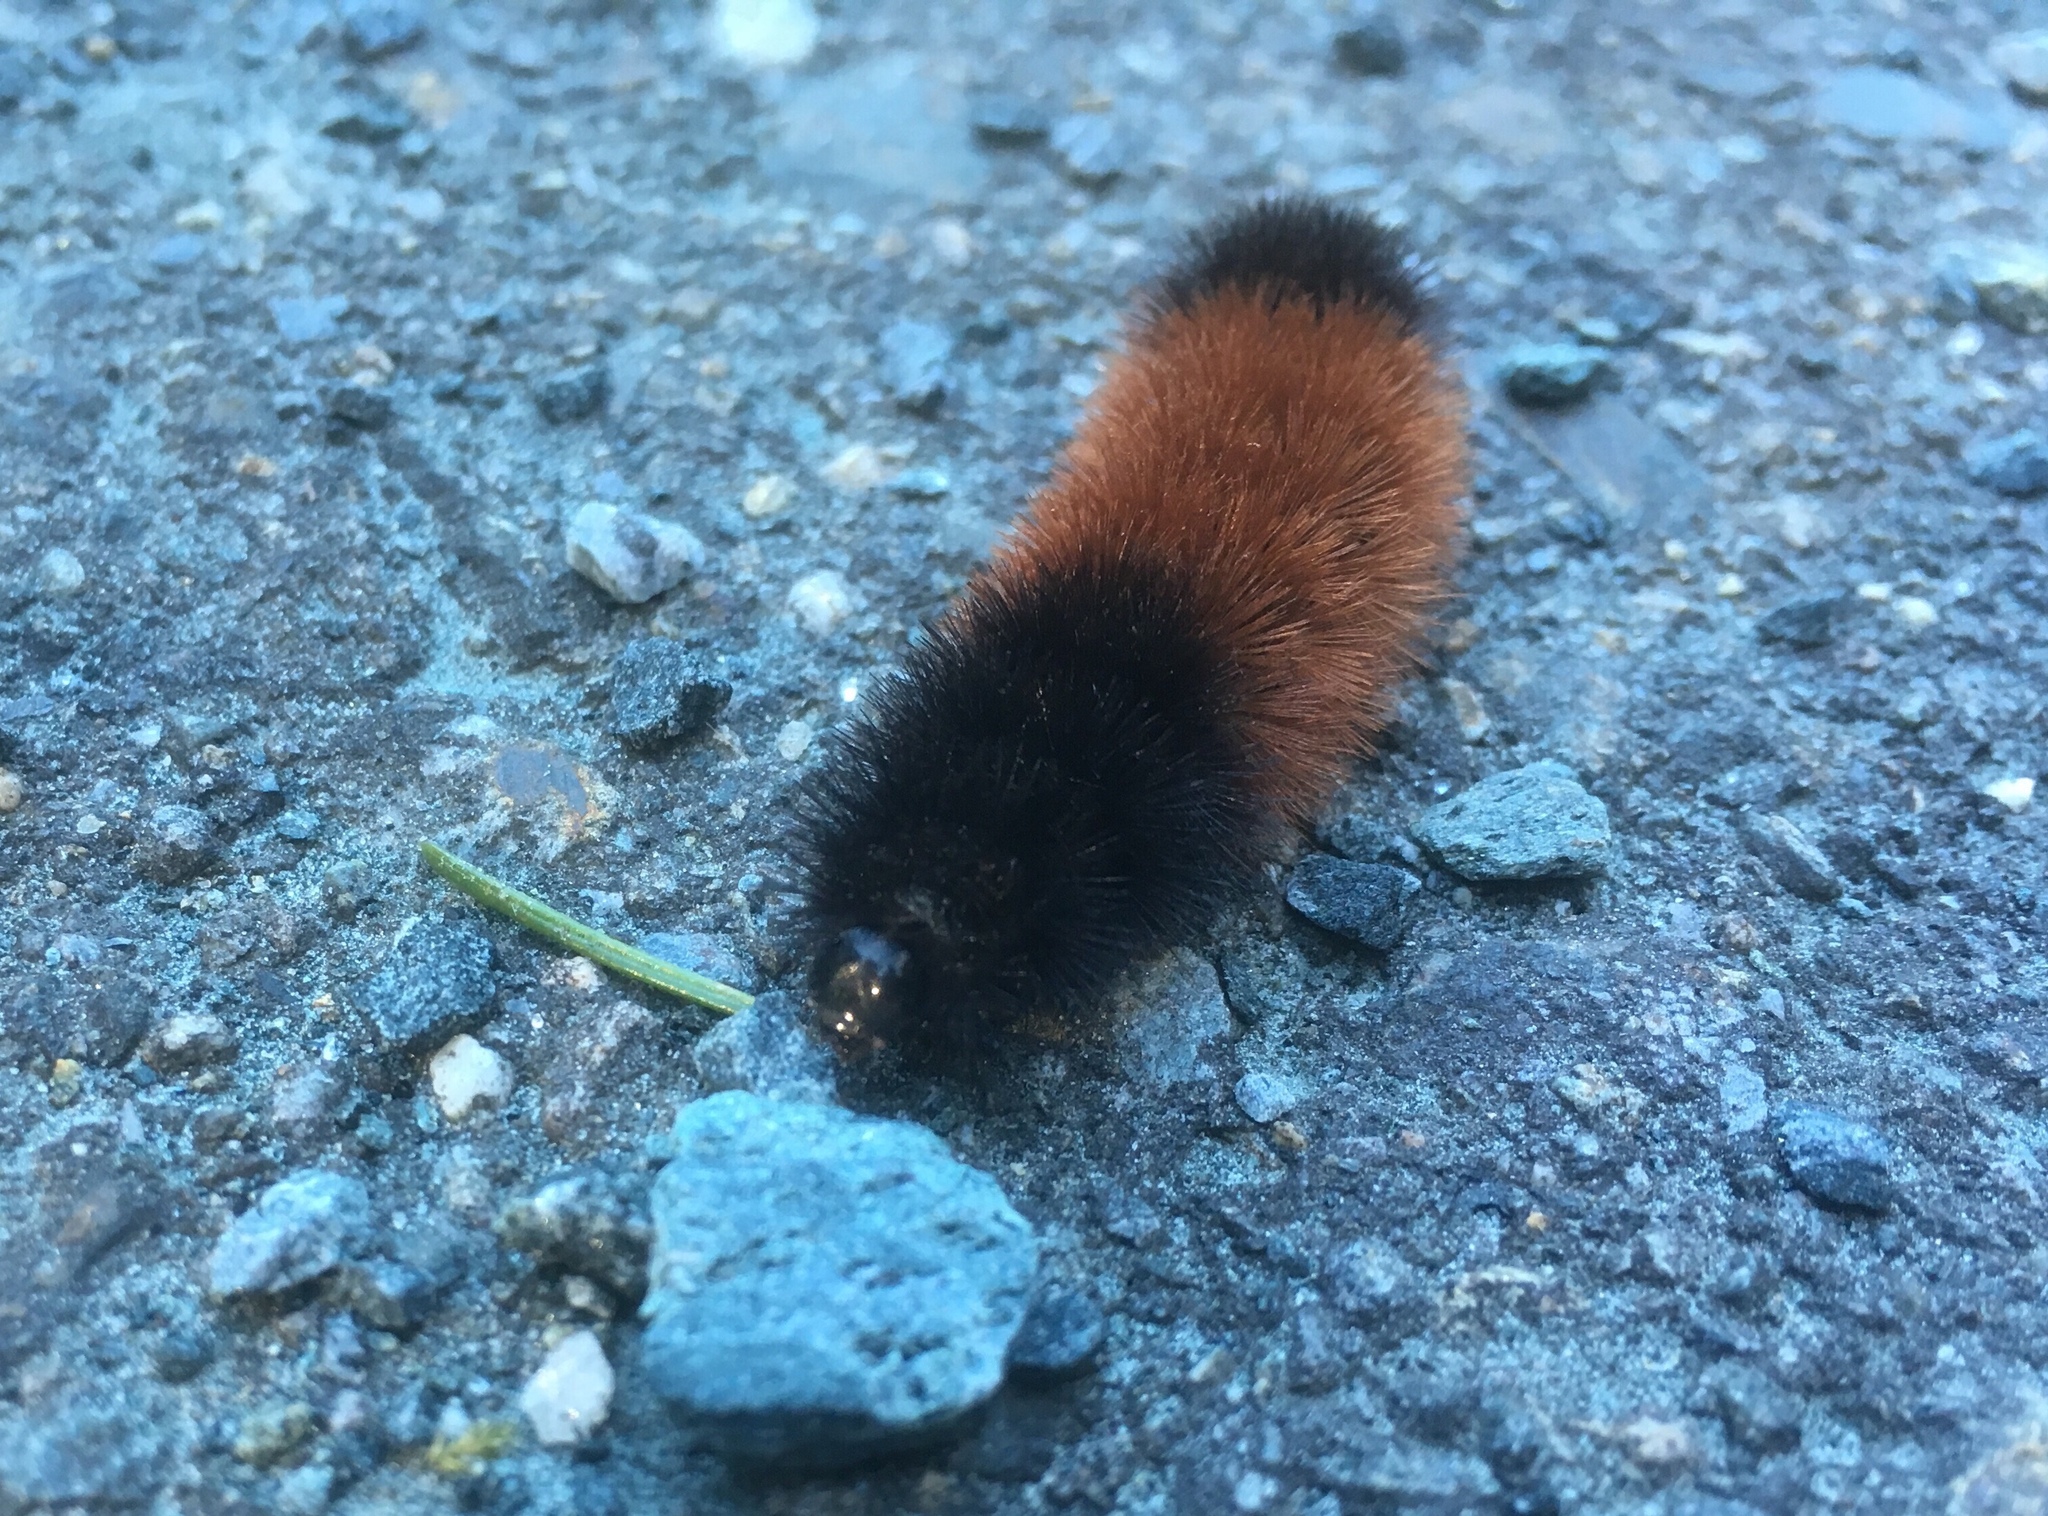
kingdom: Animalia
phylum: Arthropoda
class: Insecta
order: Lepidoptera
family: Erebidae
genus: Pyrrharctia
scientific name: Pyrrharctia isabella
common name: Isabella tiger moth
